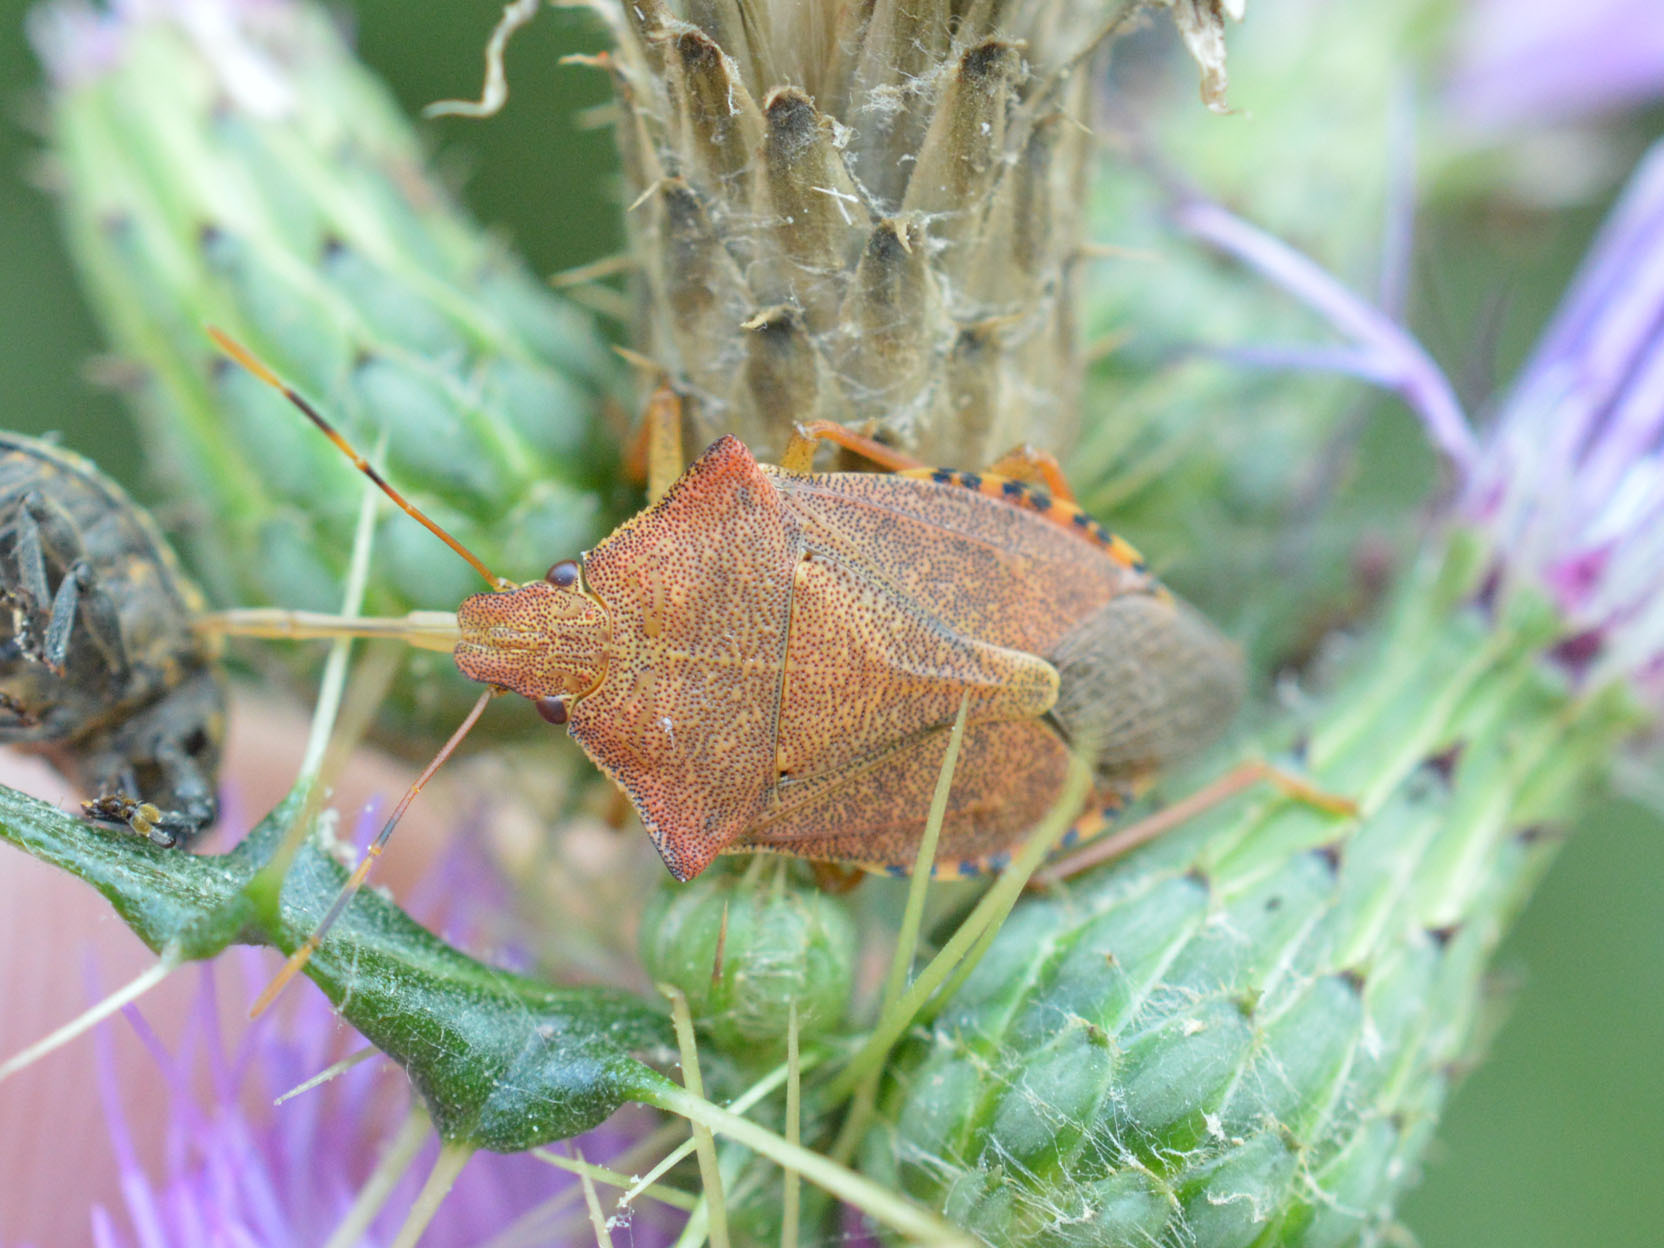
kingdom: Animalia
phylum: Arthropoda
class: Insecta
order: Hemiptera
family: Pentatomidae
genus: Arma
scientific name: Arma custos
